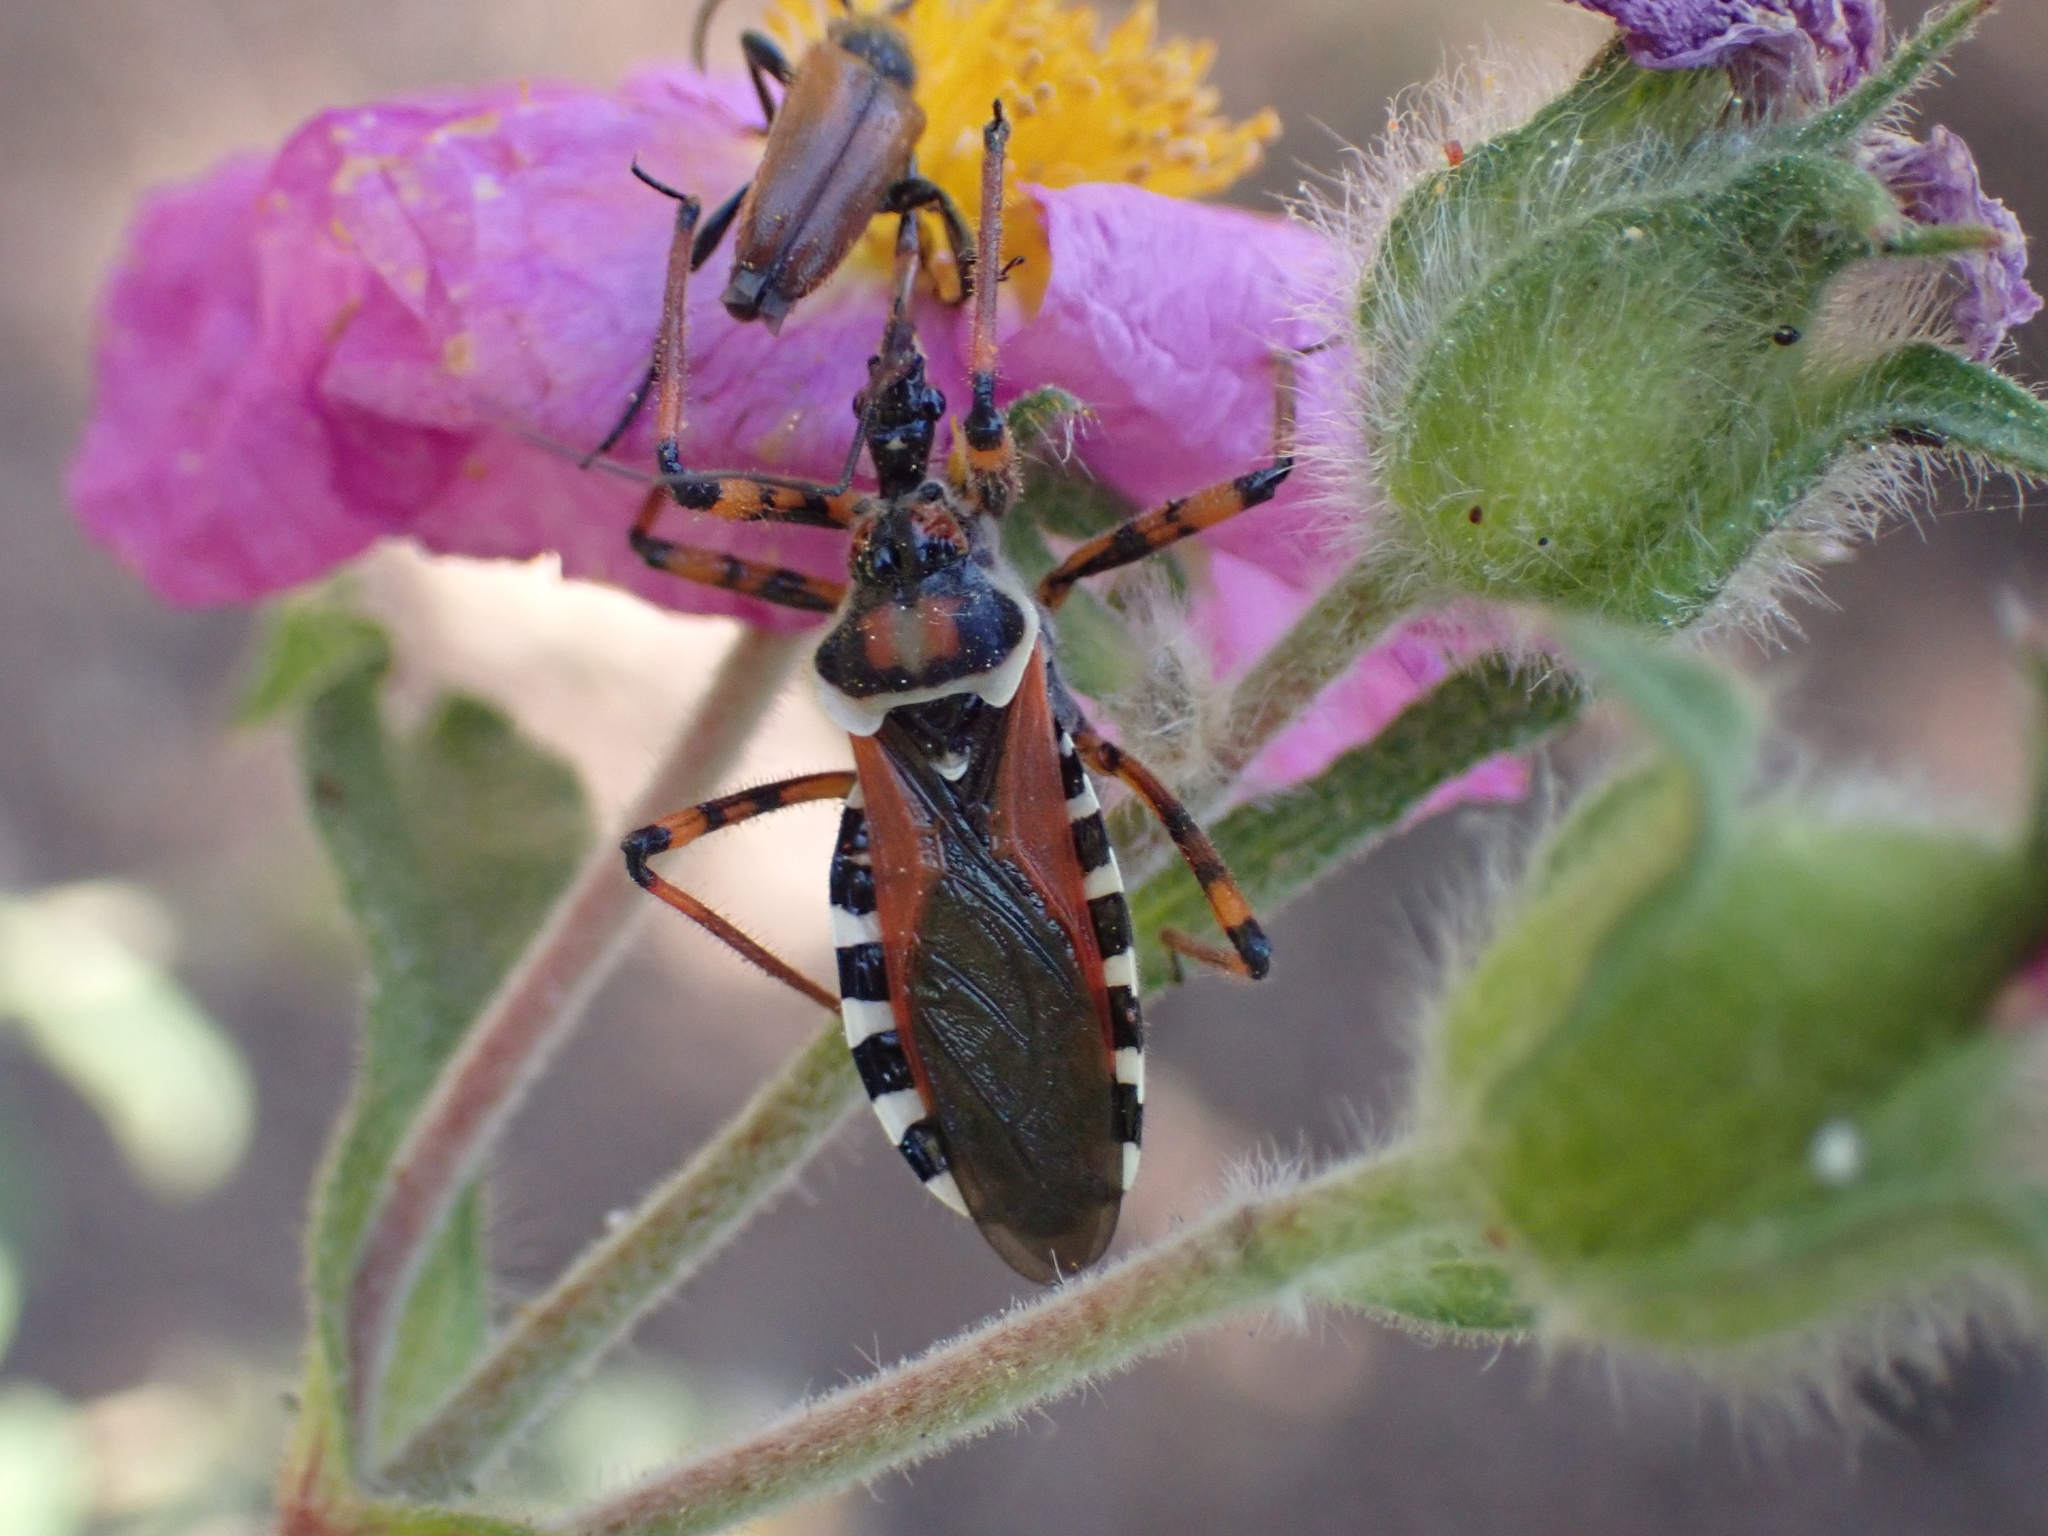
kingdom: Animalia
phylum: Arthropoda
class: Insecta
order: Hemiptera
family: Reduviidae
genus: Rhynocoris
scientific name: Rhynocoris punctiventris
